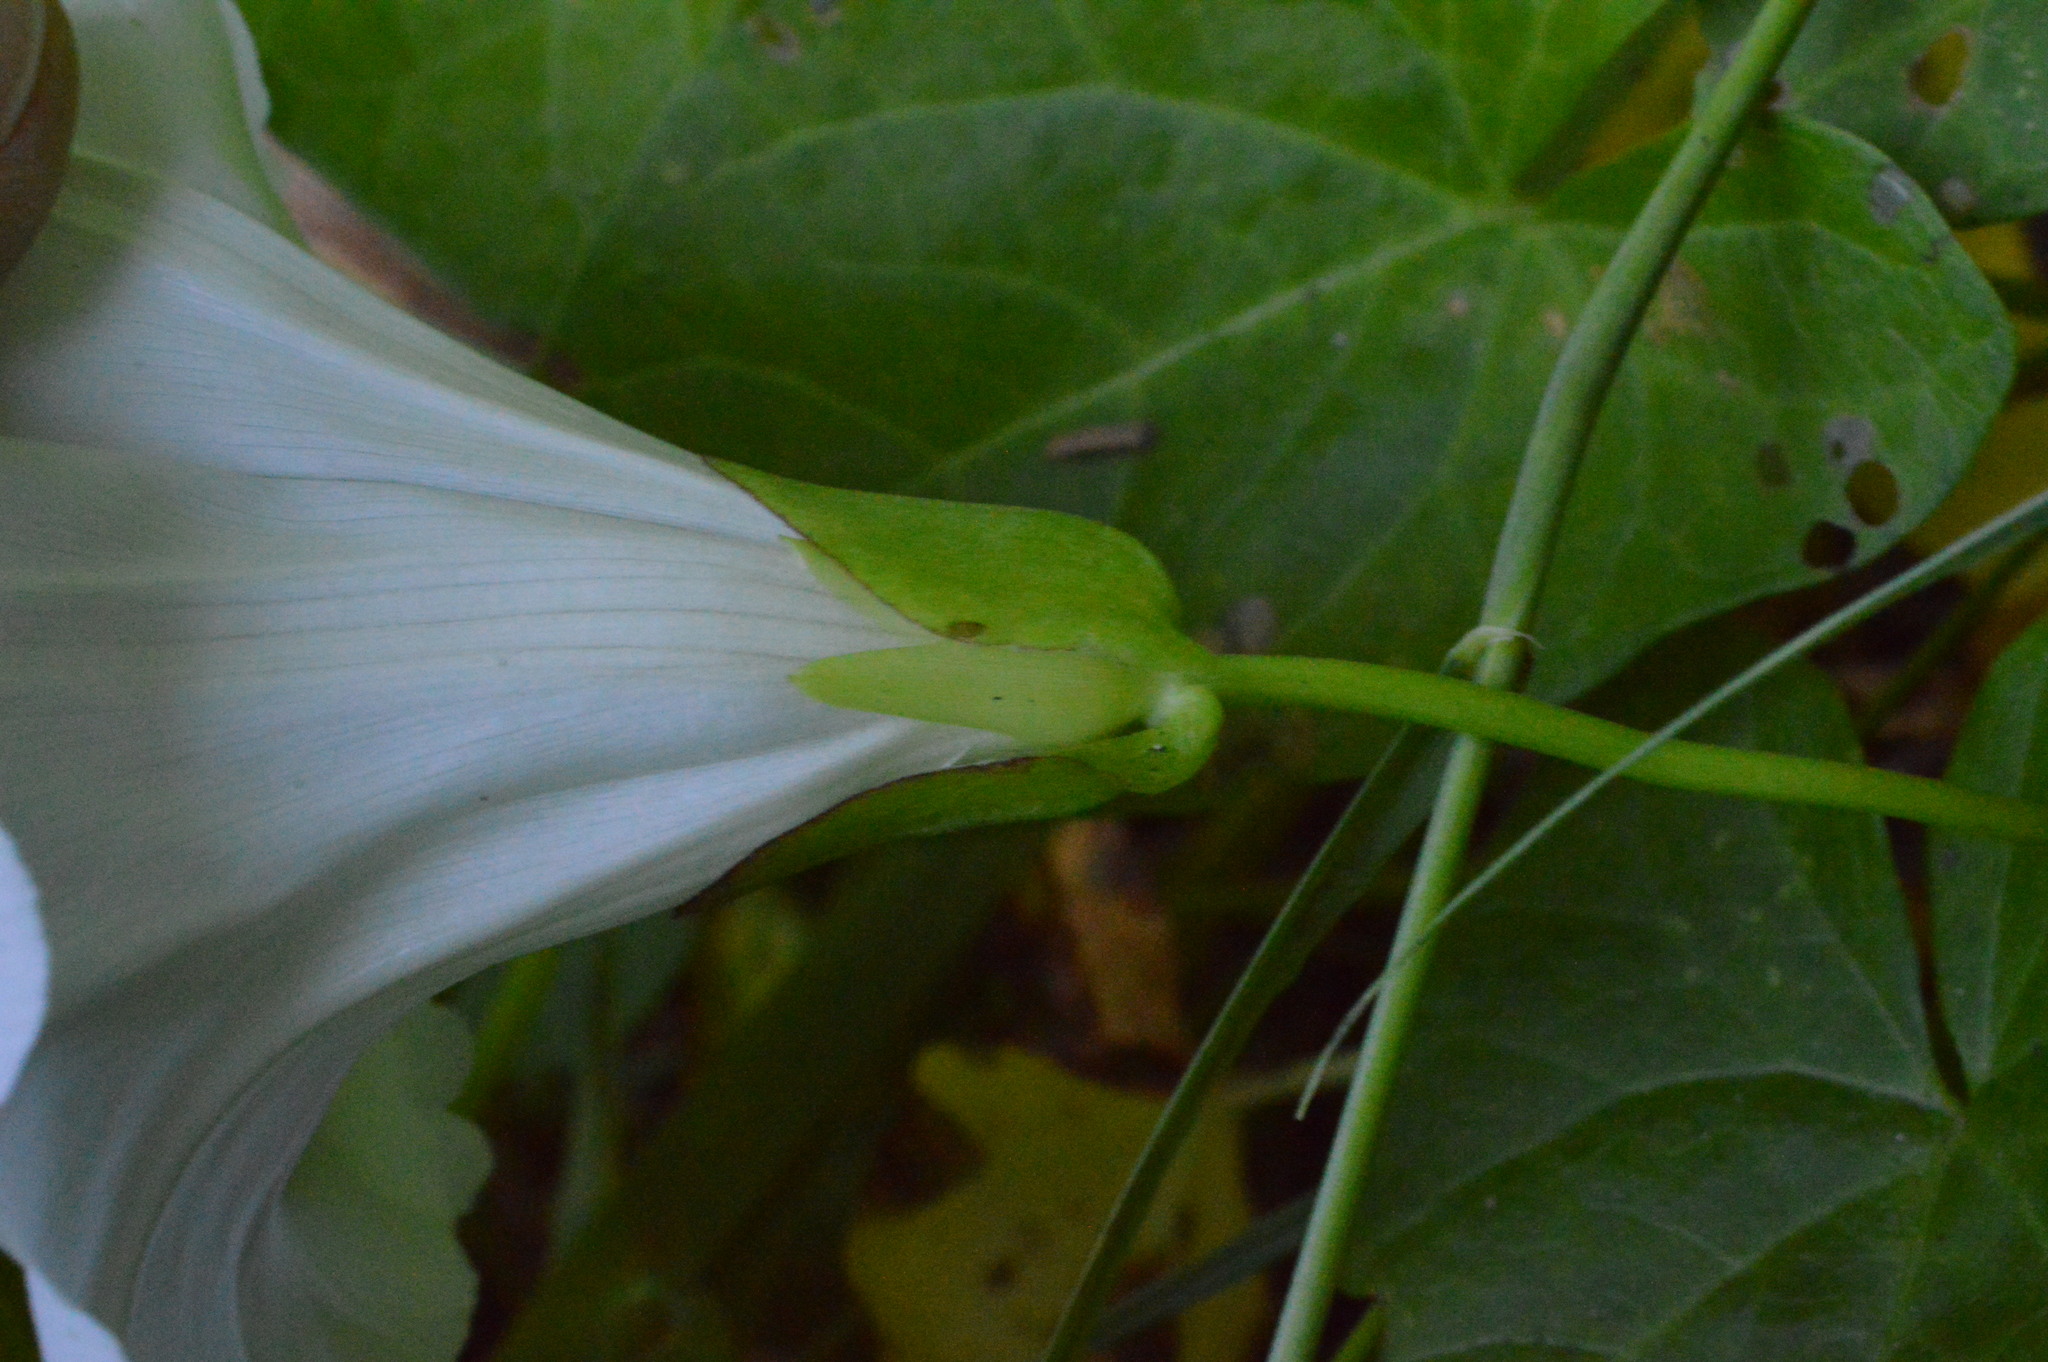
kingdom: Plantae
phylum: Tracheophyta
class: Magnoliopsida
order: Solanales
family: Convolvulaceae
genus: Calystegia
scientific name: Calystegia sepium
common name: Hedge bindweed
